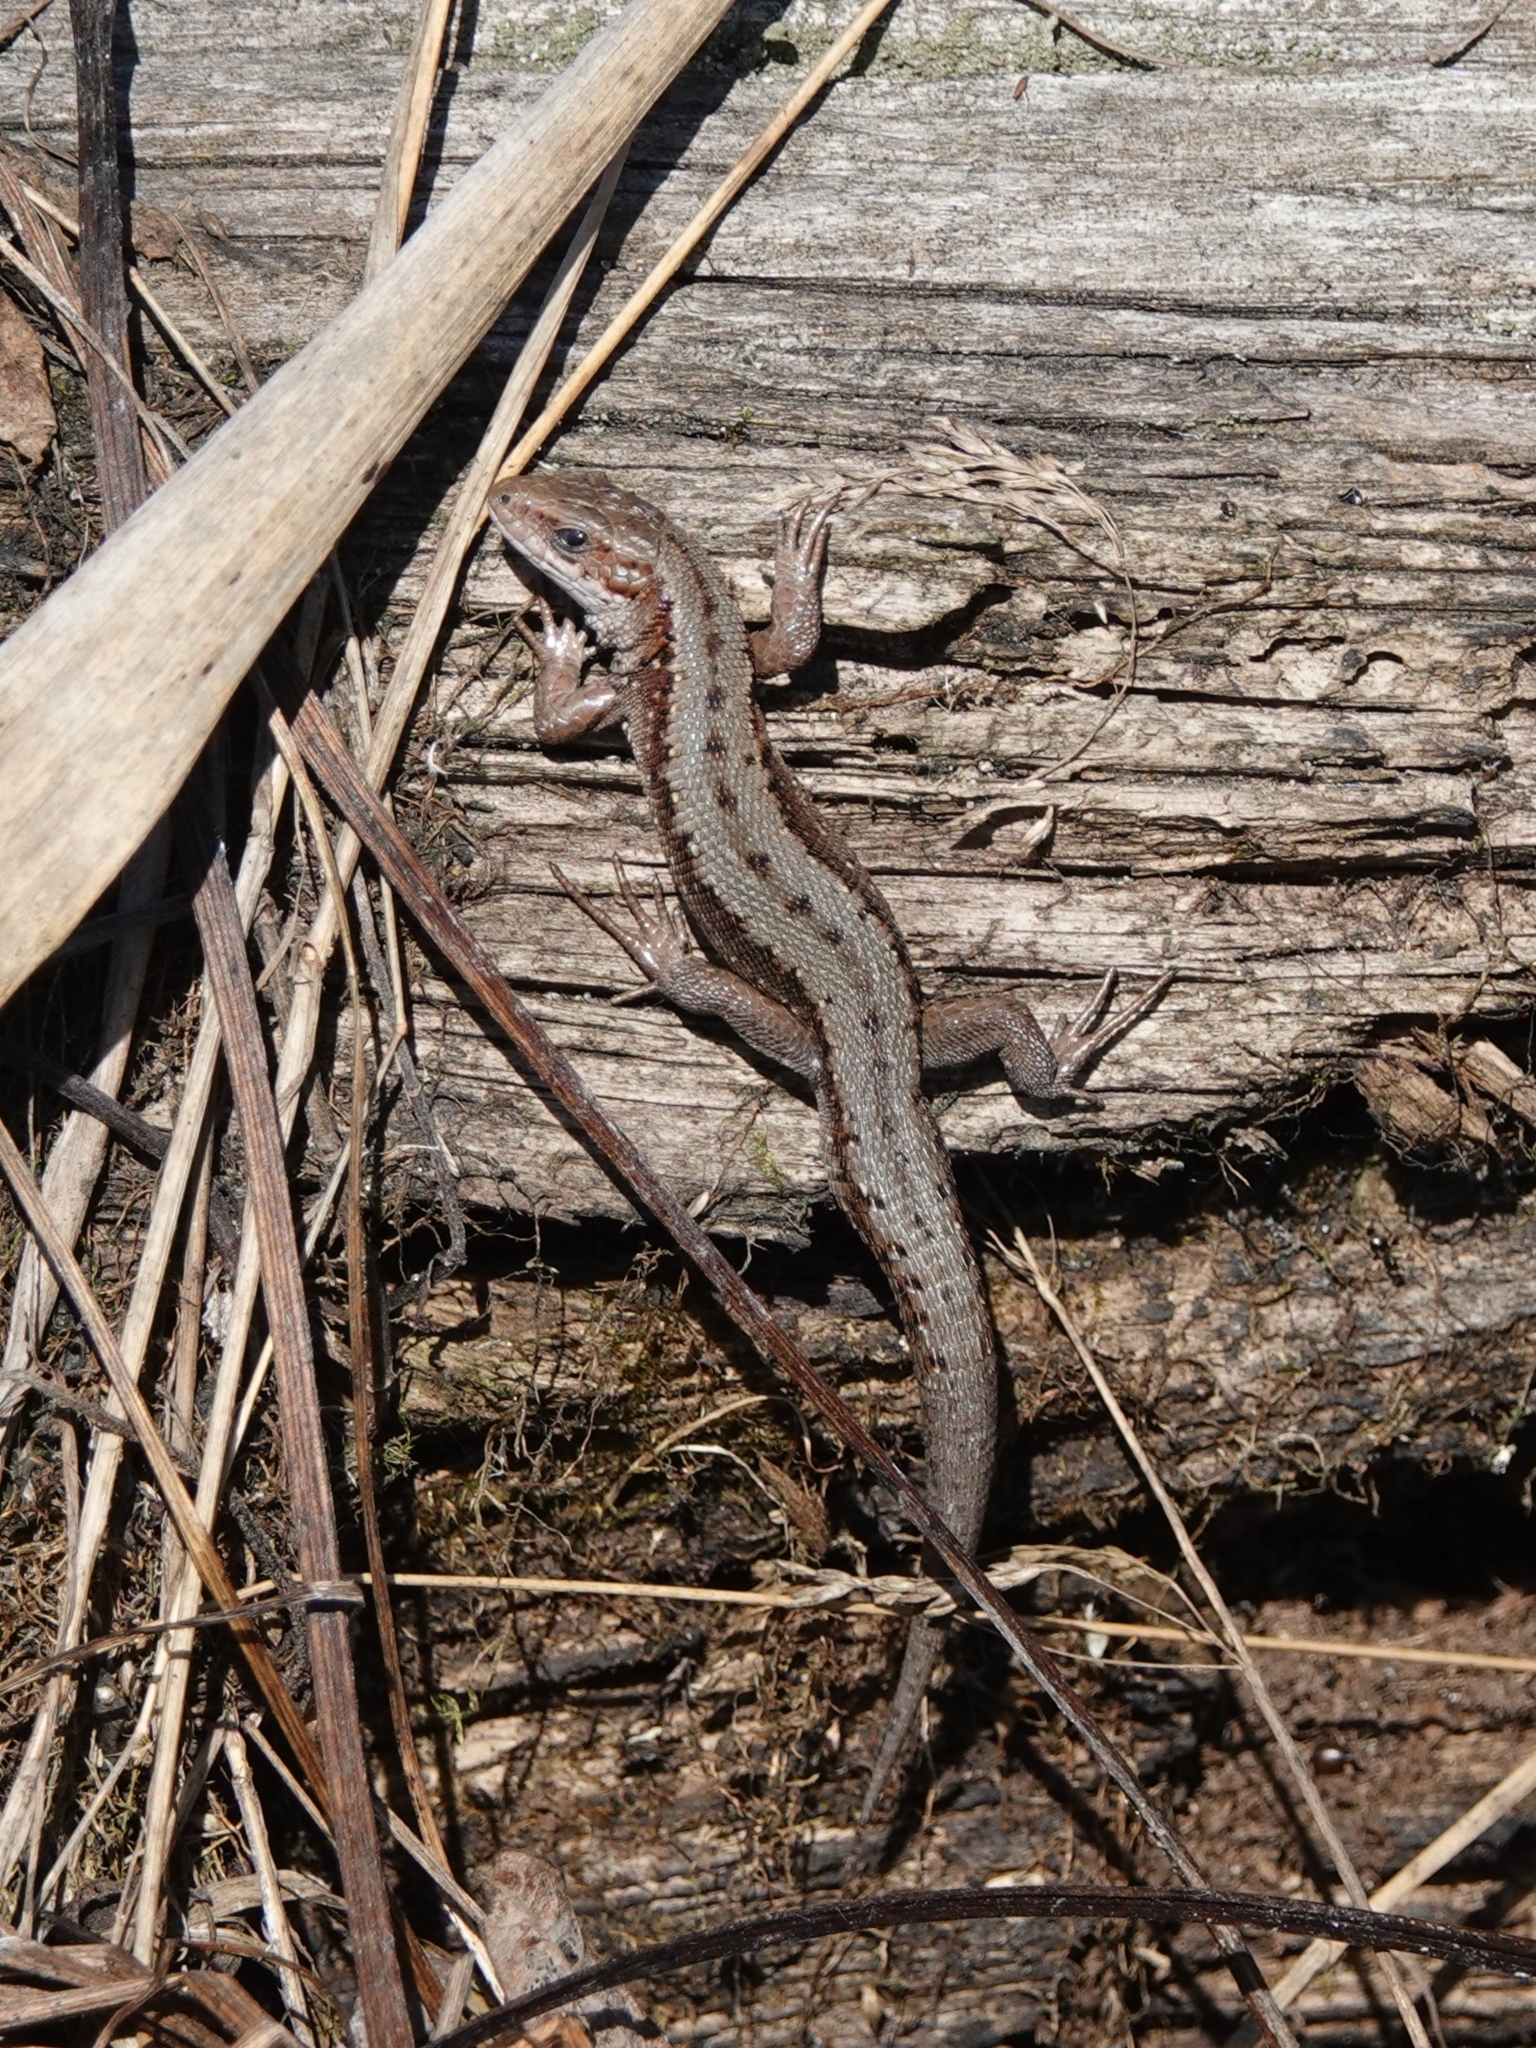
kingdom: Animalia
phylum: Chordata
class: Squamata
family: Lacertidae
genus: Zootoca
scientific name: Zootoca vivipara
